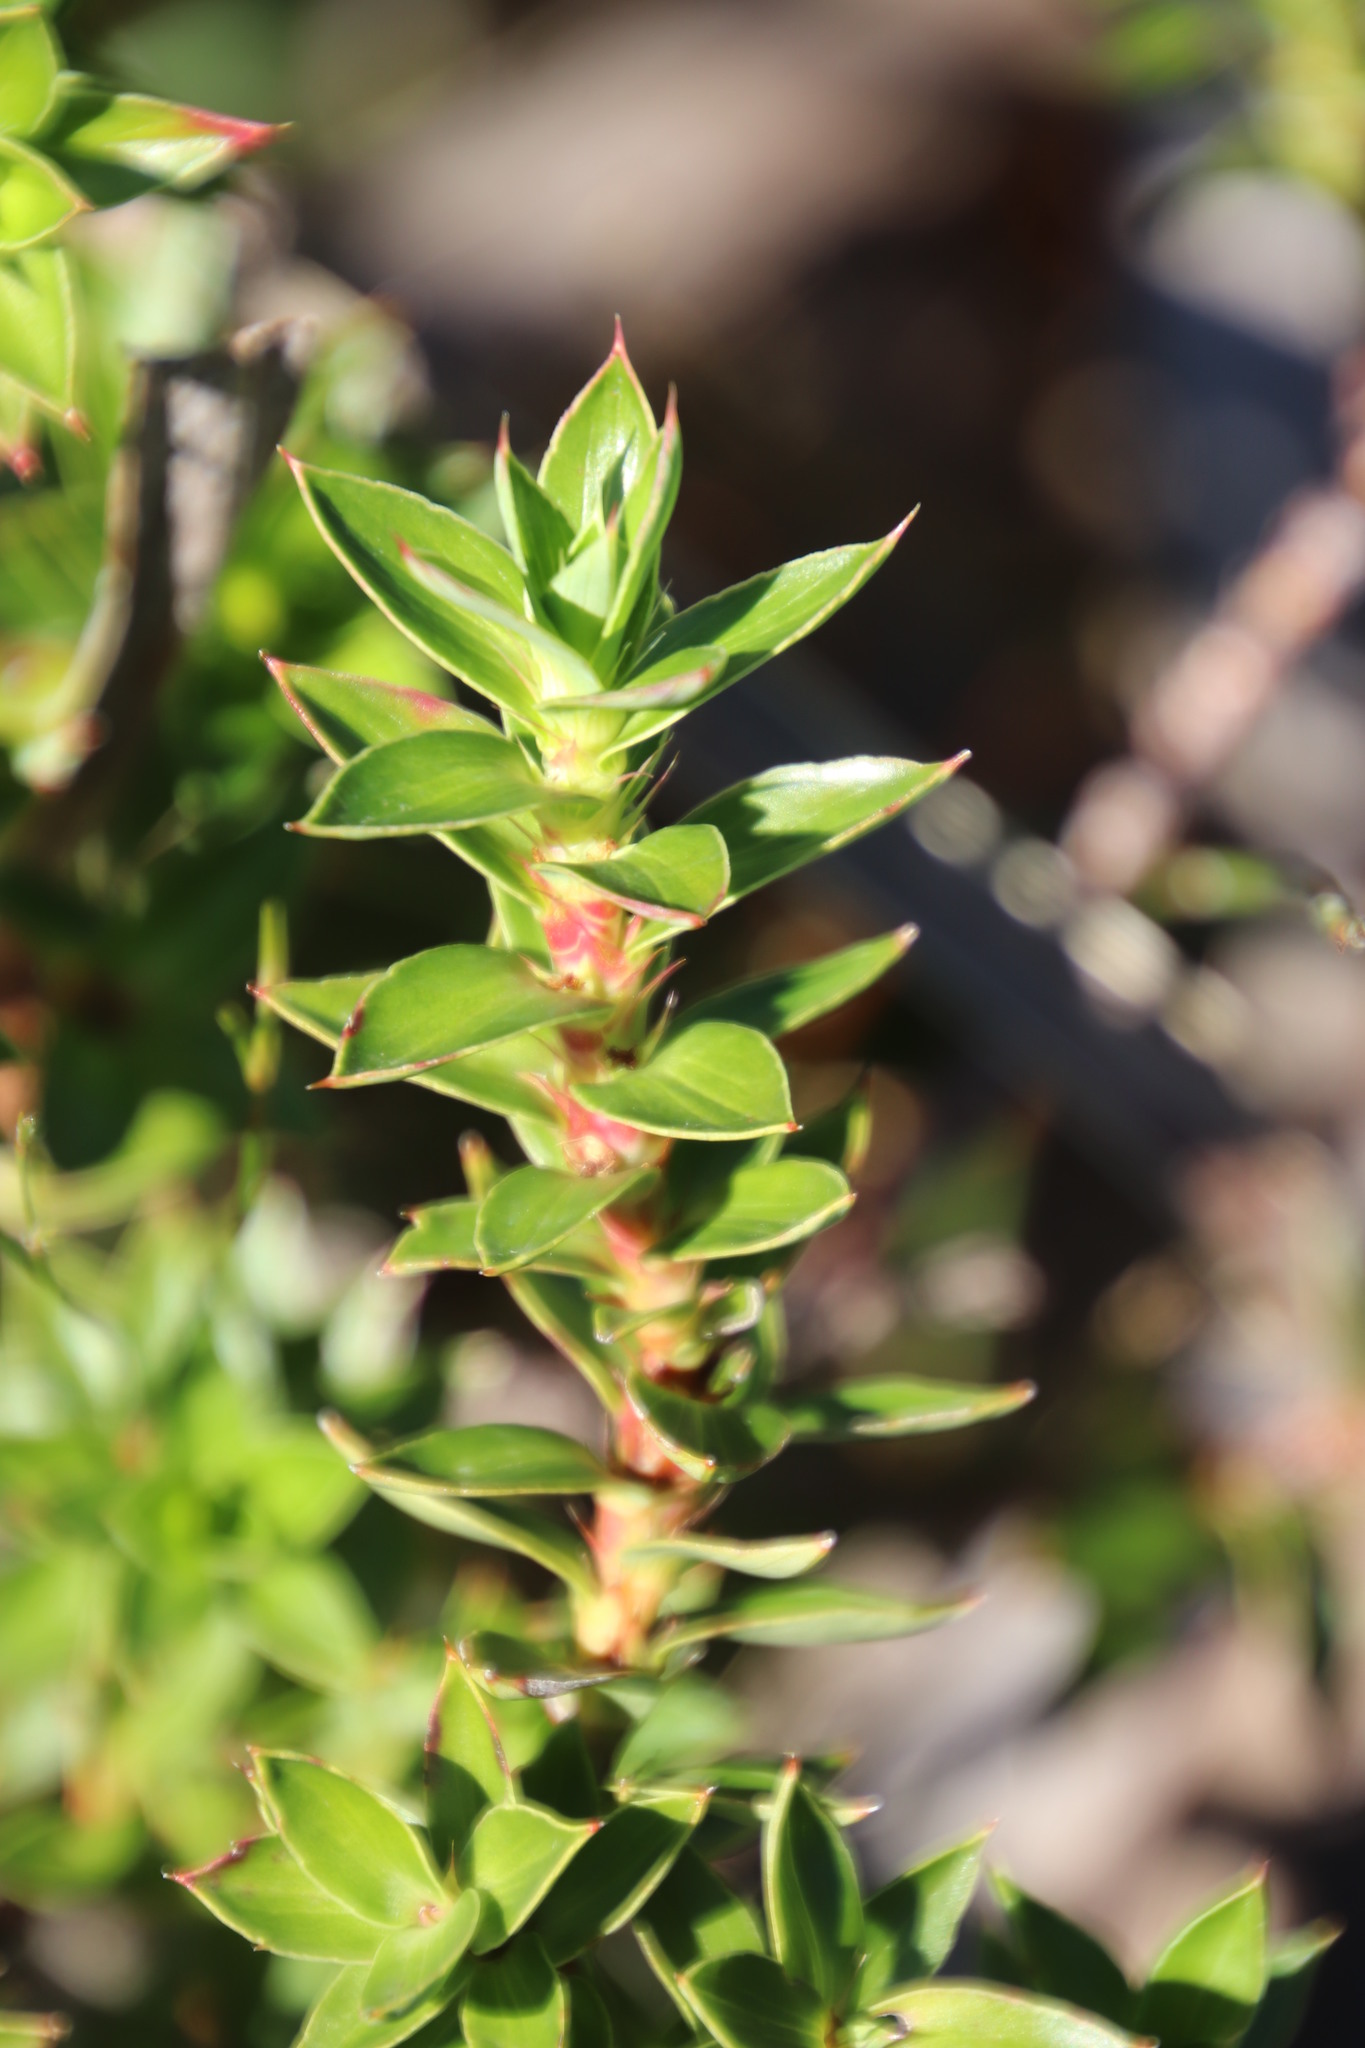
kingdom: Plantae
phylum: Tracheophyta
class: Magnoliopsida
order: Rosales
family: Rosaceae
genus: Cliffortia
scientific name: Cliffortia integerrima
